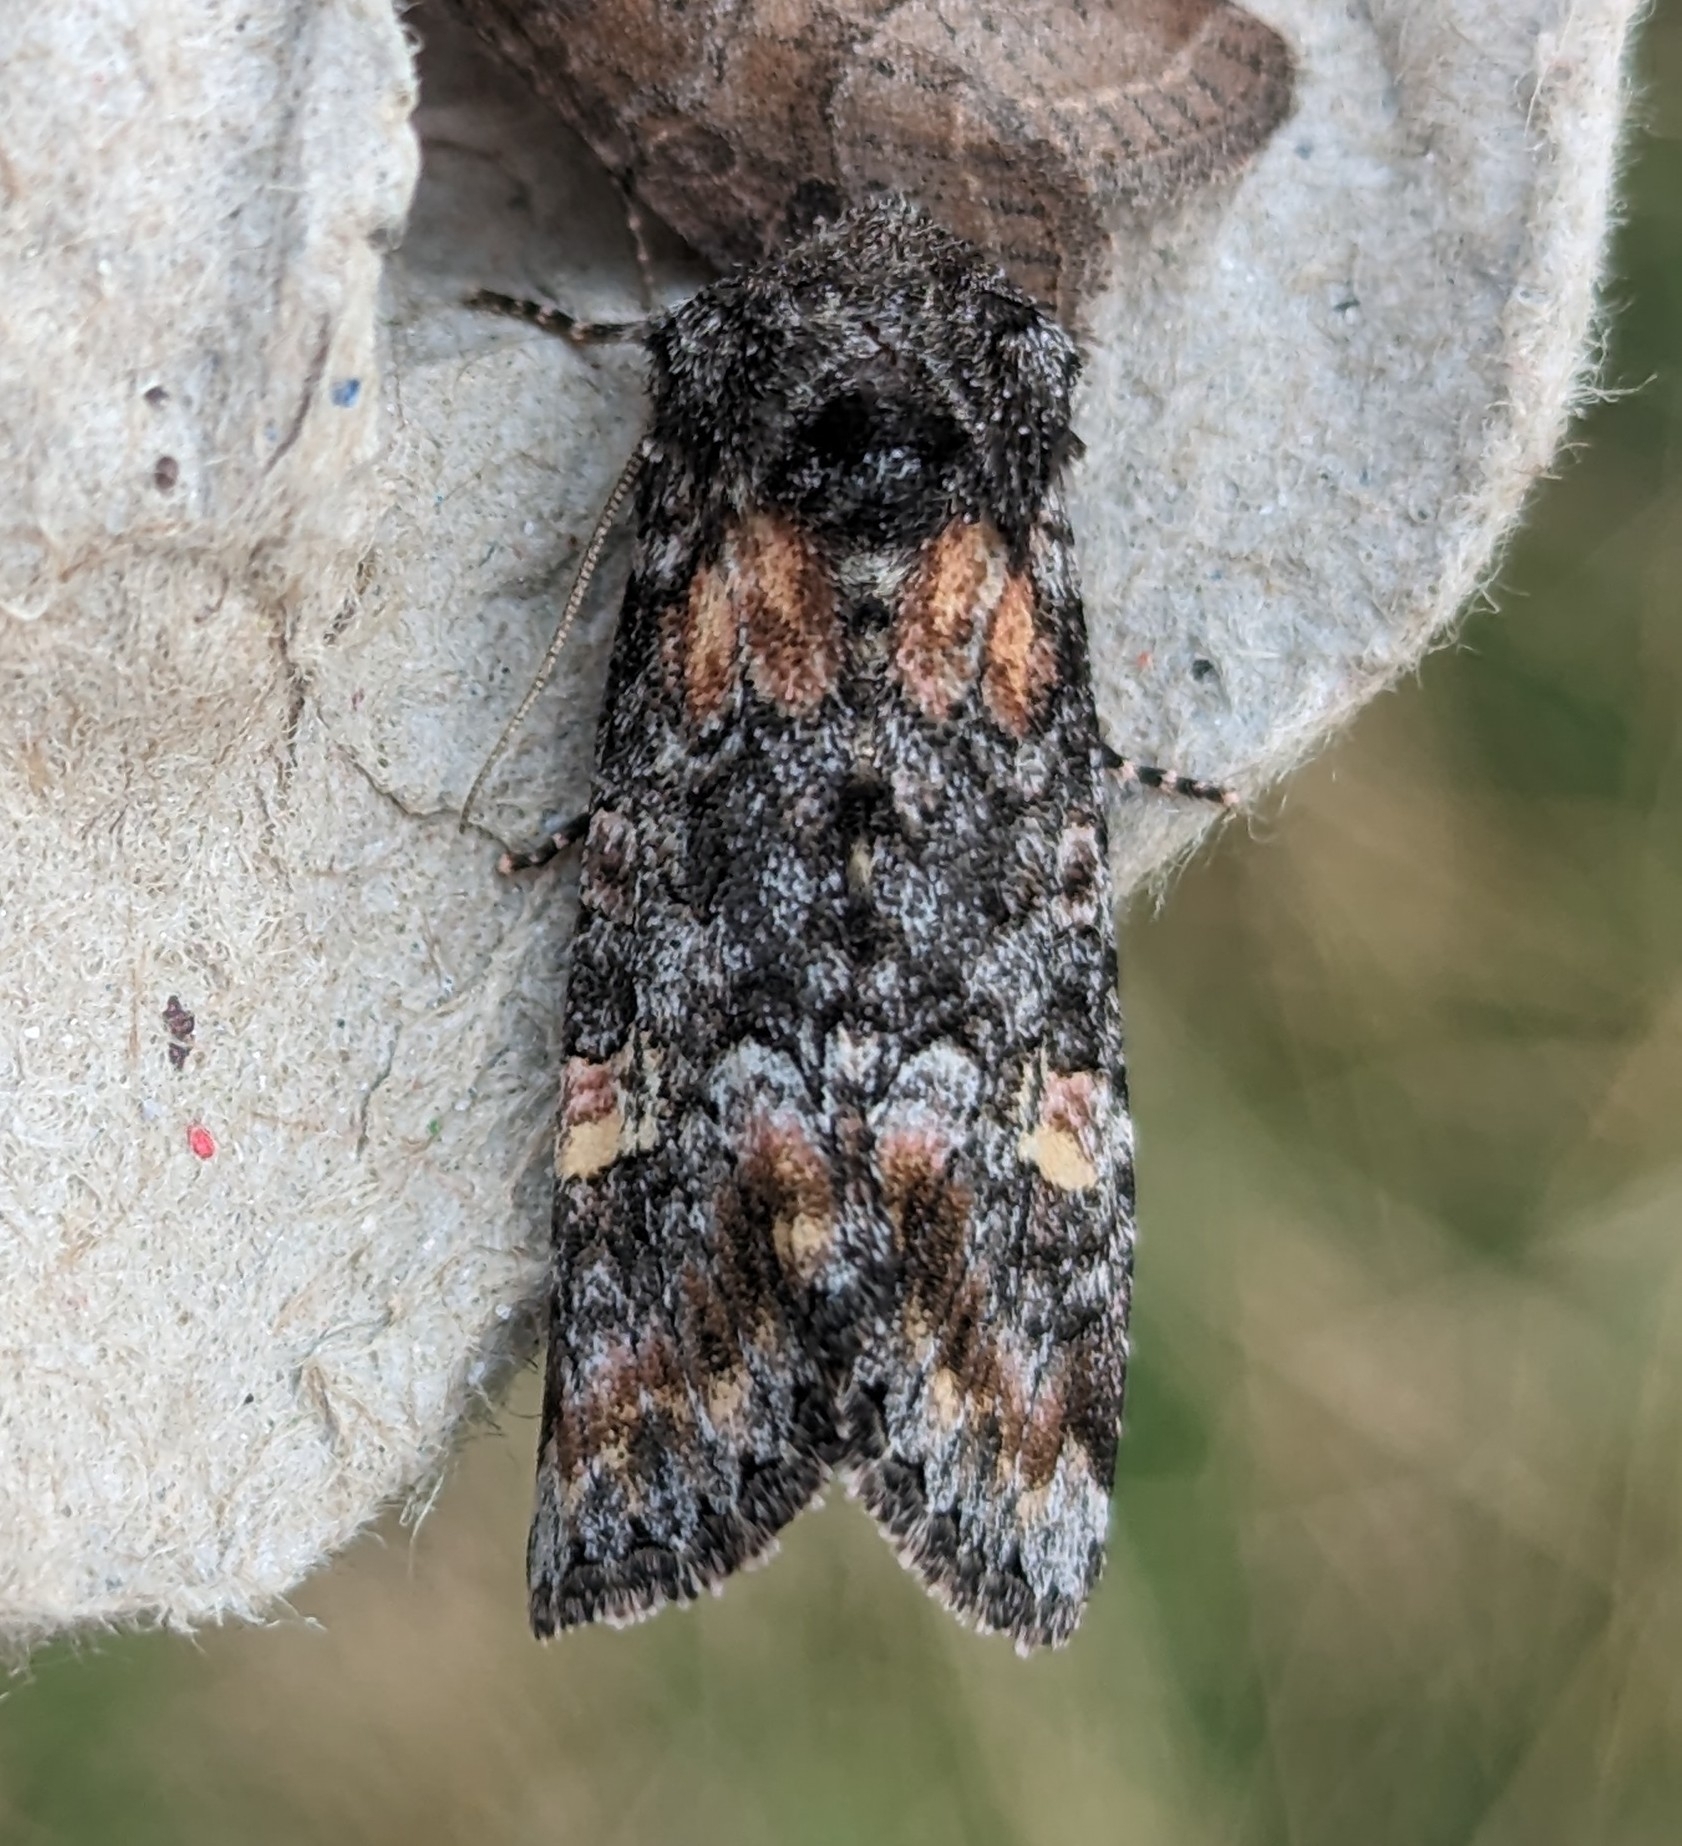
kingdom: Animalia
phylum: Arthropoda
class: Insecta
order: Lepidoptera
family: Noctuidae
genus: Spiramater
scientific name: Spiramater lutra
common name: Otter spiramater moth
